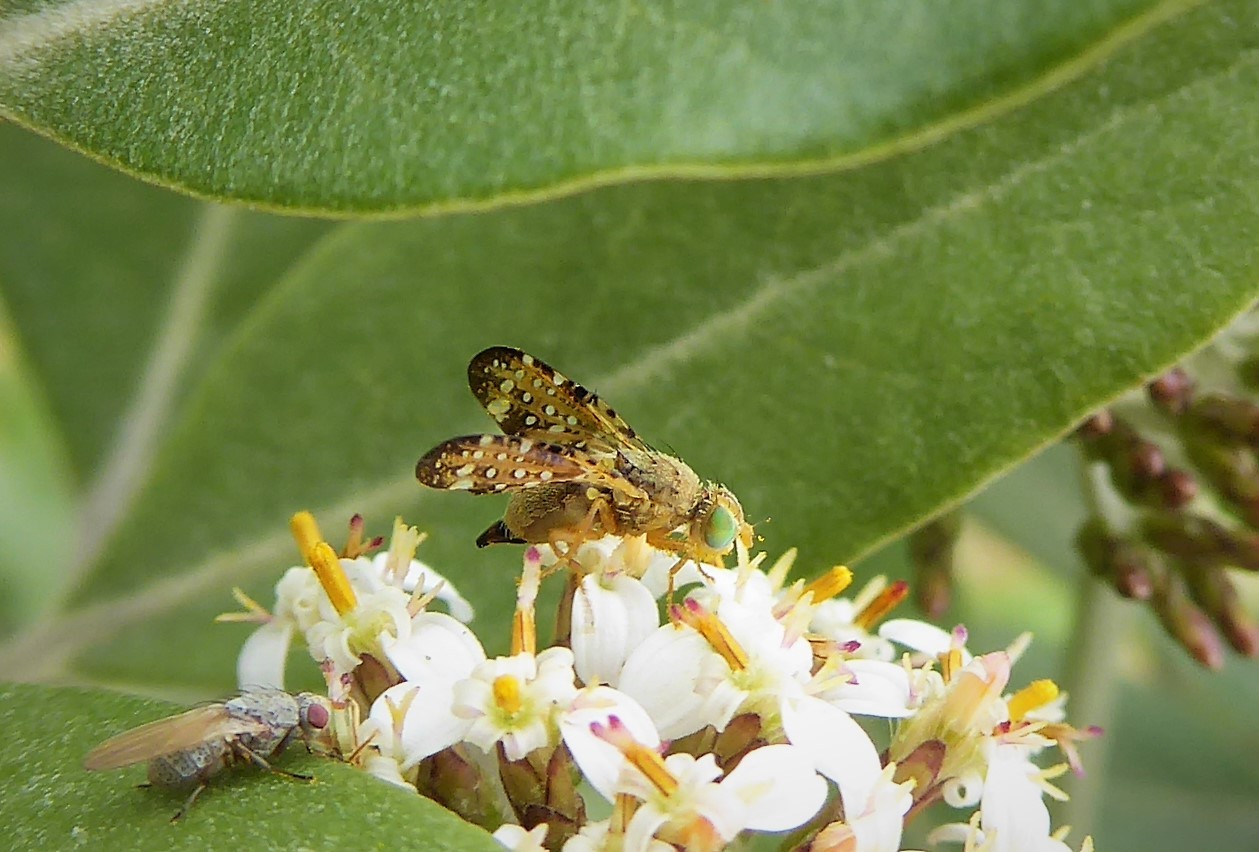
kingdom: Animalia
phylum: Arthropoda
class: Insecta
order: Diptera
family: Tephritidae
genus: Austrotephritis
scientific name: Austrotephritis
